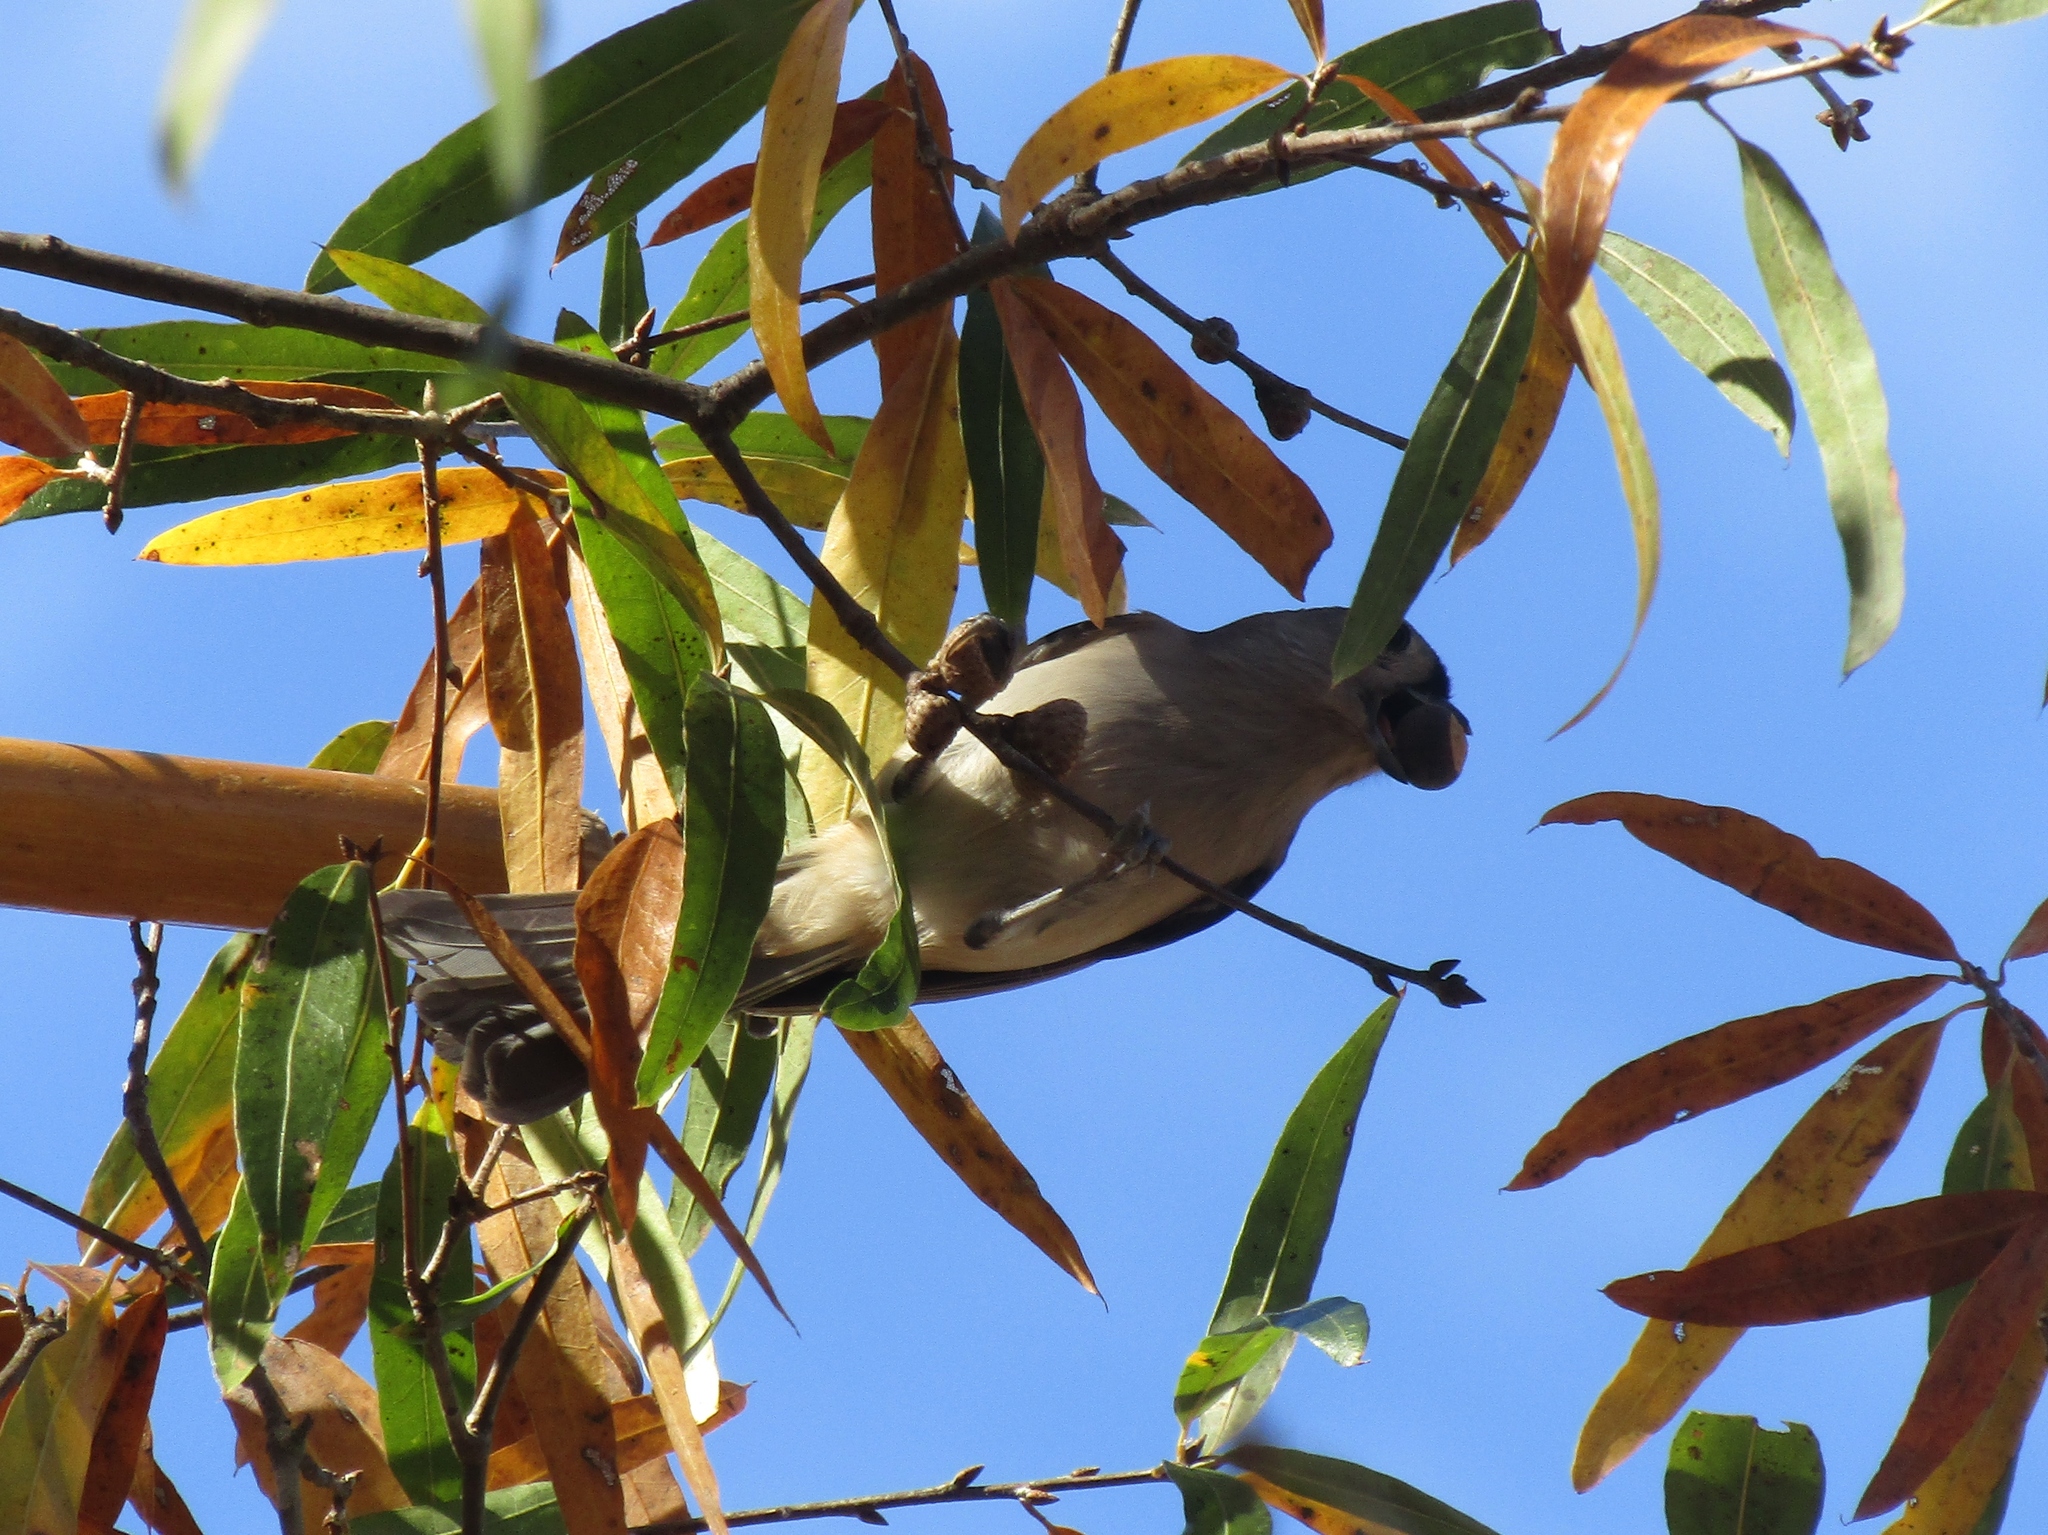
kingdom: Animalia
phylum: Chordata
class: Aves
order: Passeriformes
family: Paridae
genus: Baeolophus
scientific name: Baeolophus bicolor
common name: Tufted titmouse
